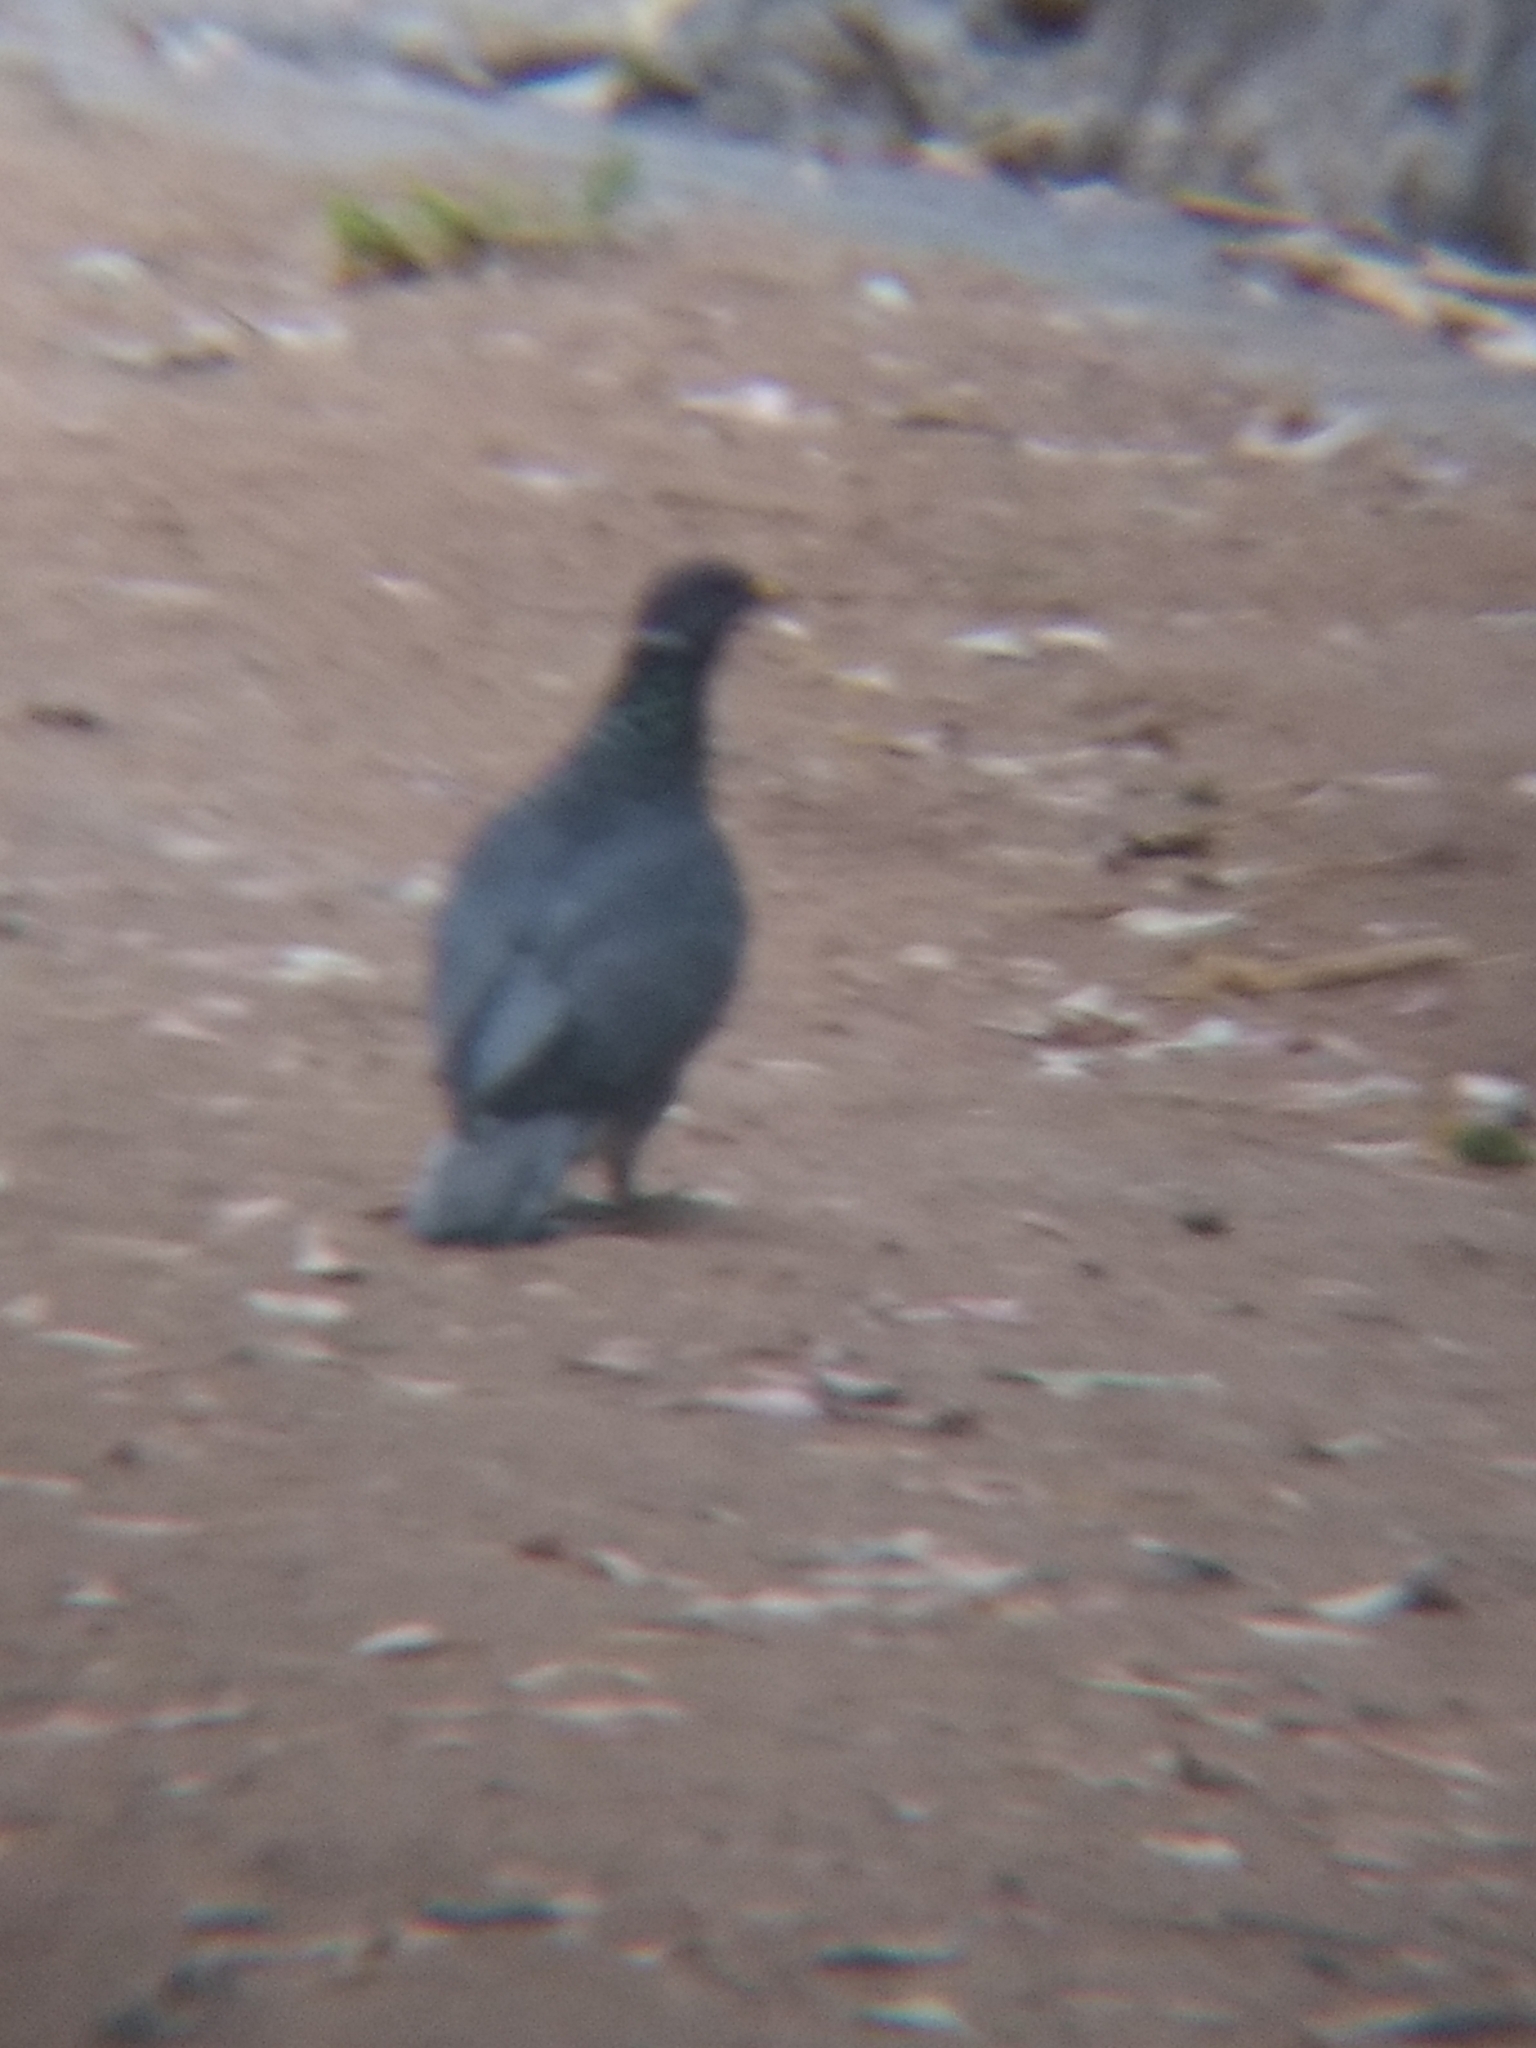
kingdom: Animalia
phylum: Chordata
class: Aves
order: Columbiformes
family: Columbidae
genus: Patagioenas
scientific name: Patagioenas fasciata
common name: Band-tailed pigeon
